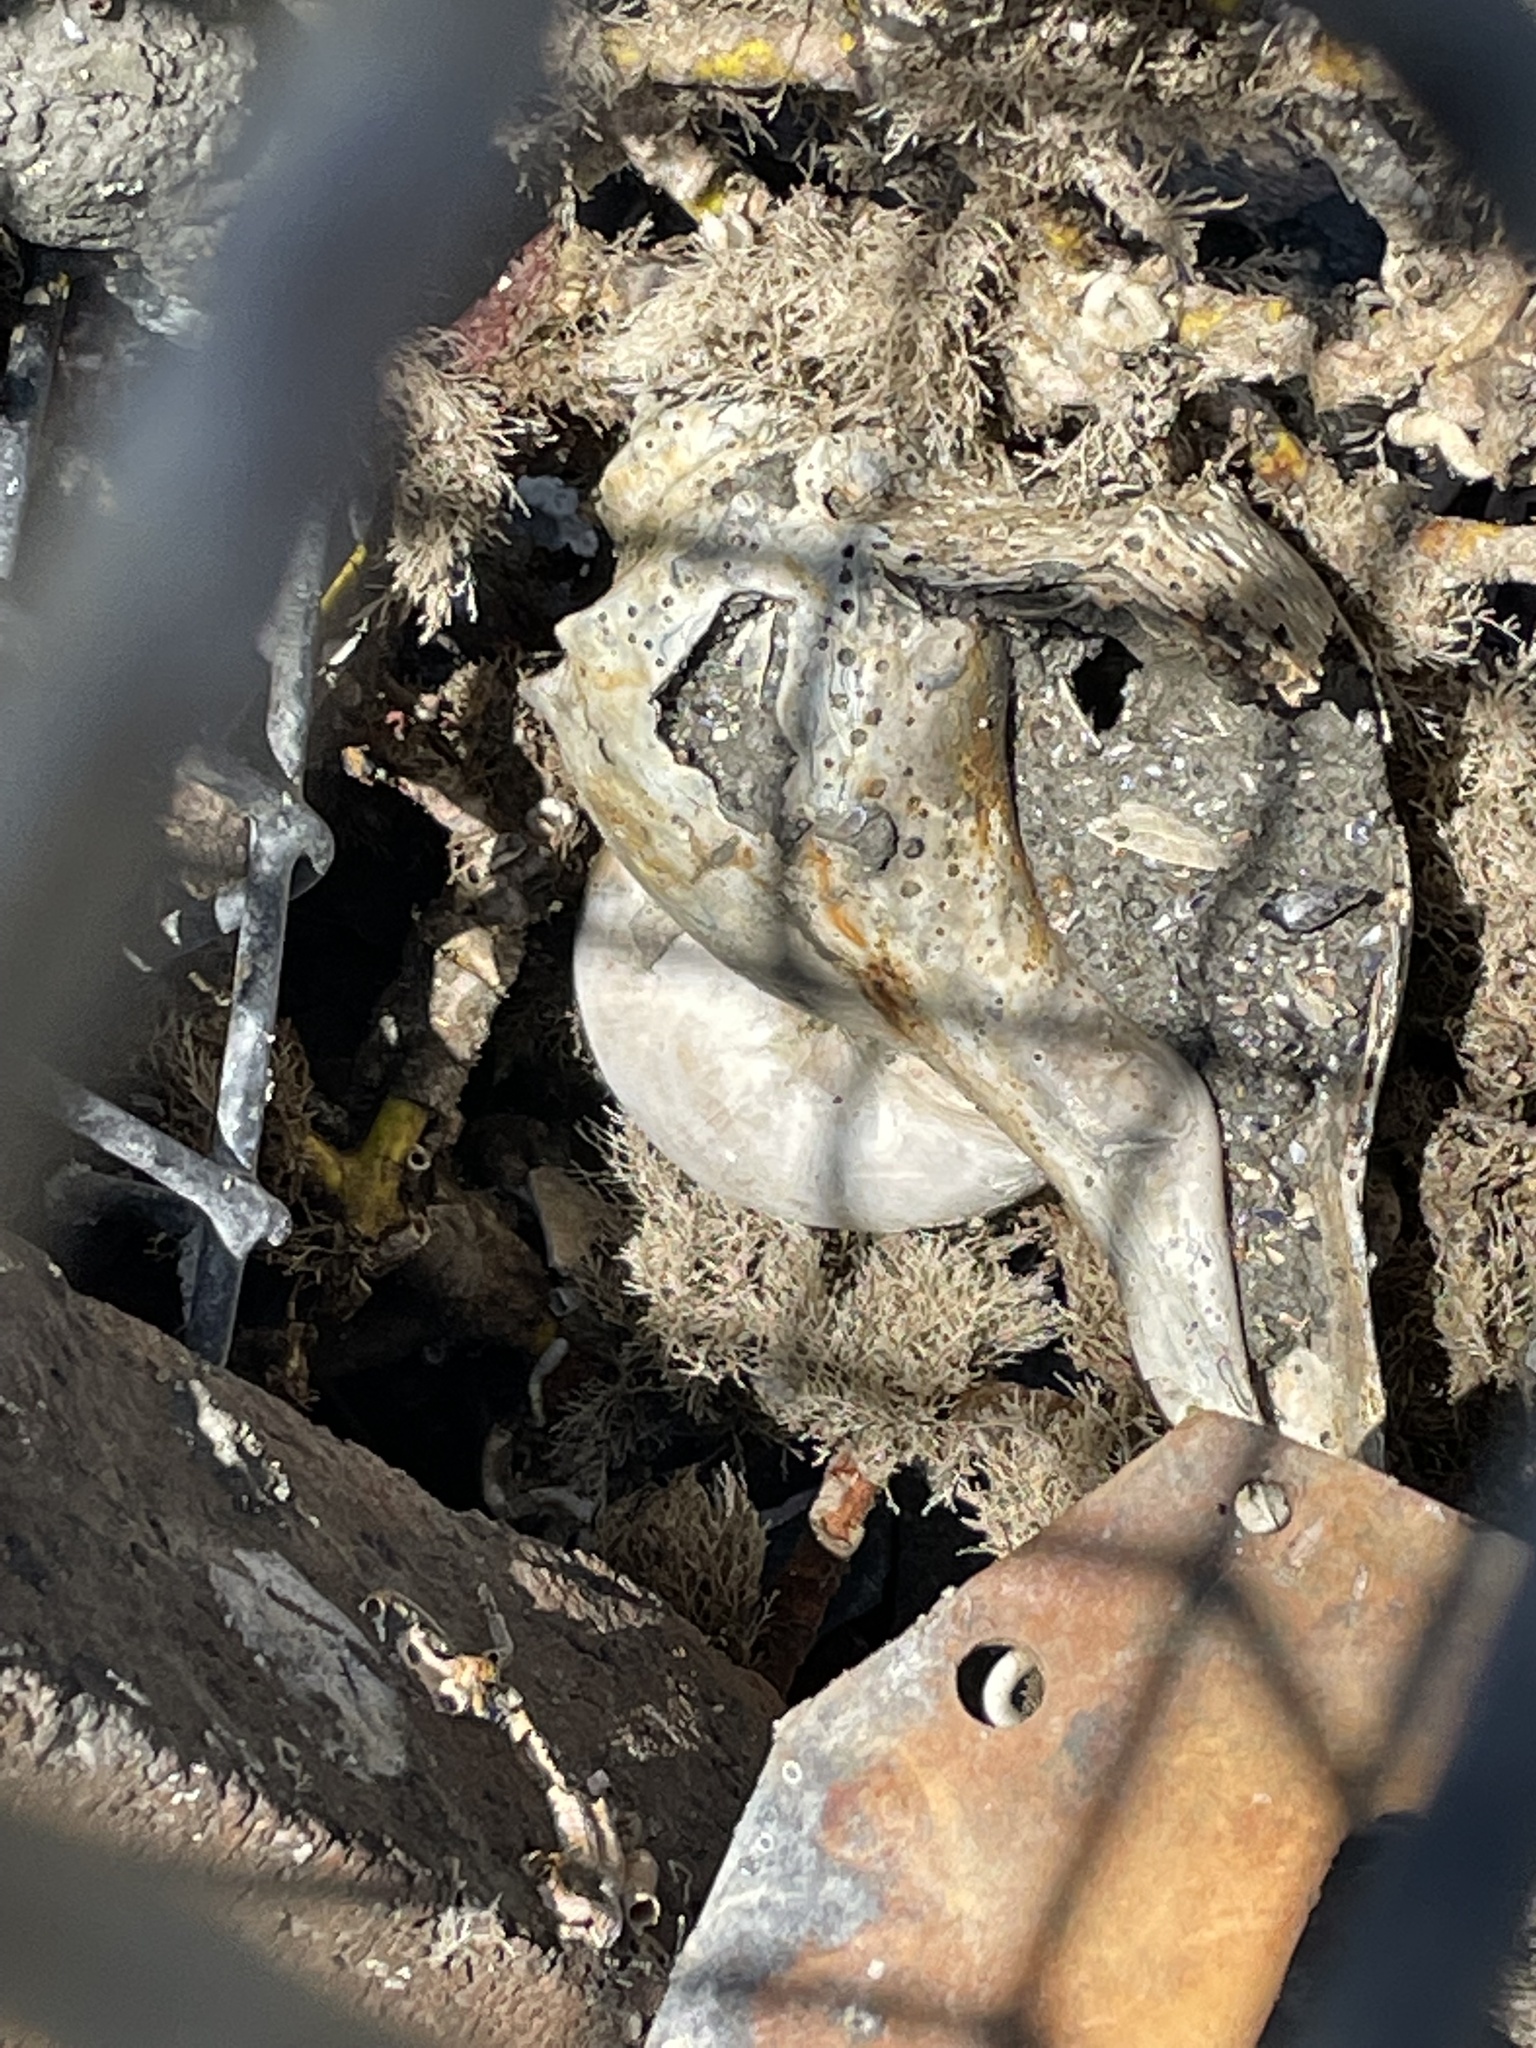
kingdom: Animalia
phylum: Mollusca
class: Gastropoda
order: Neogastropoda
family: Busyconidae
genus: Busycon
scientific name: Busycon carica
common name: Knobbed whelk
